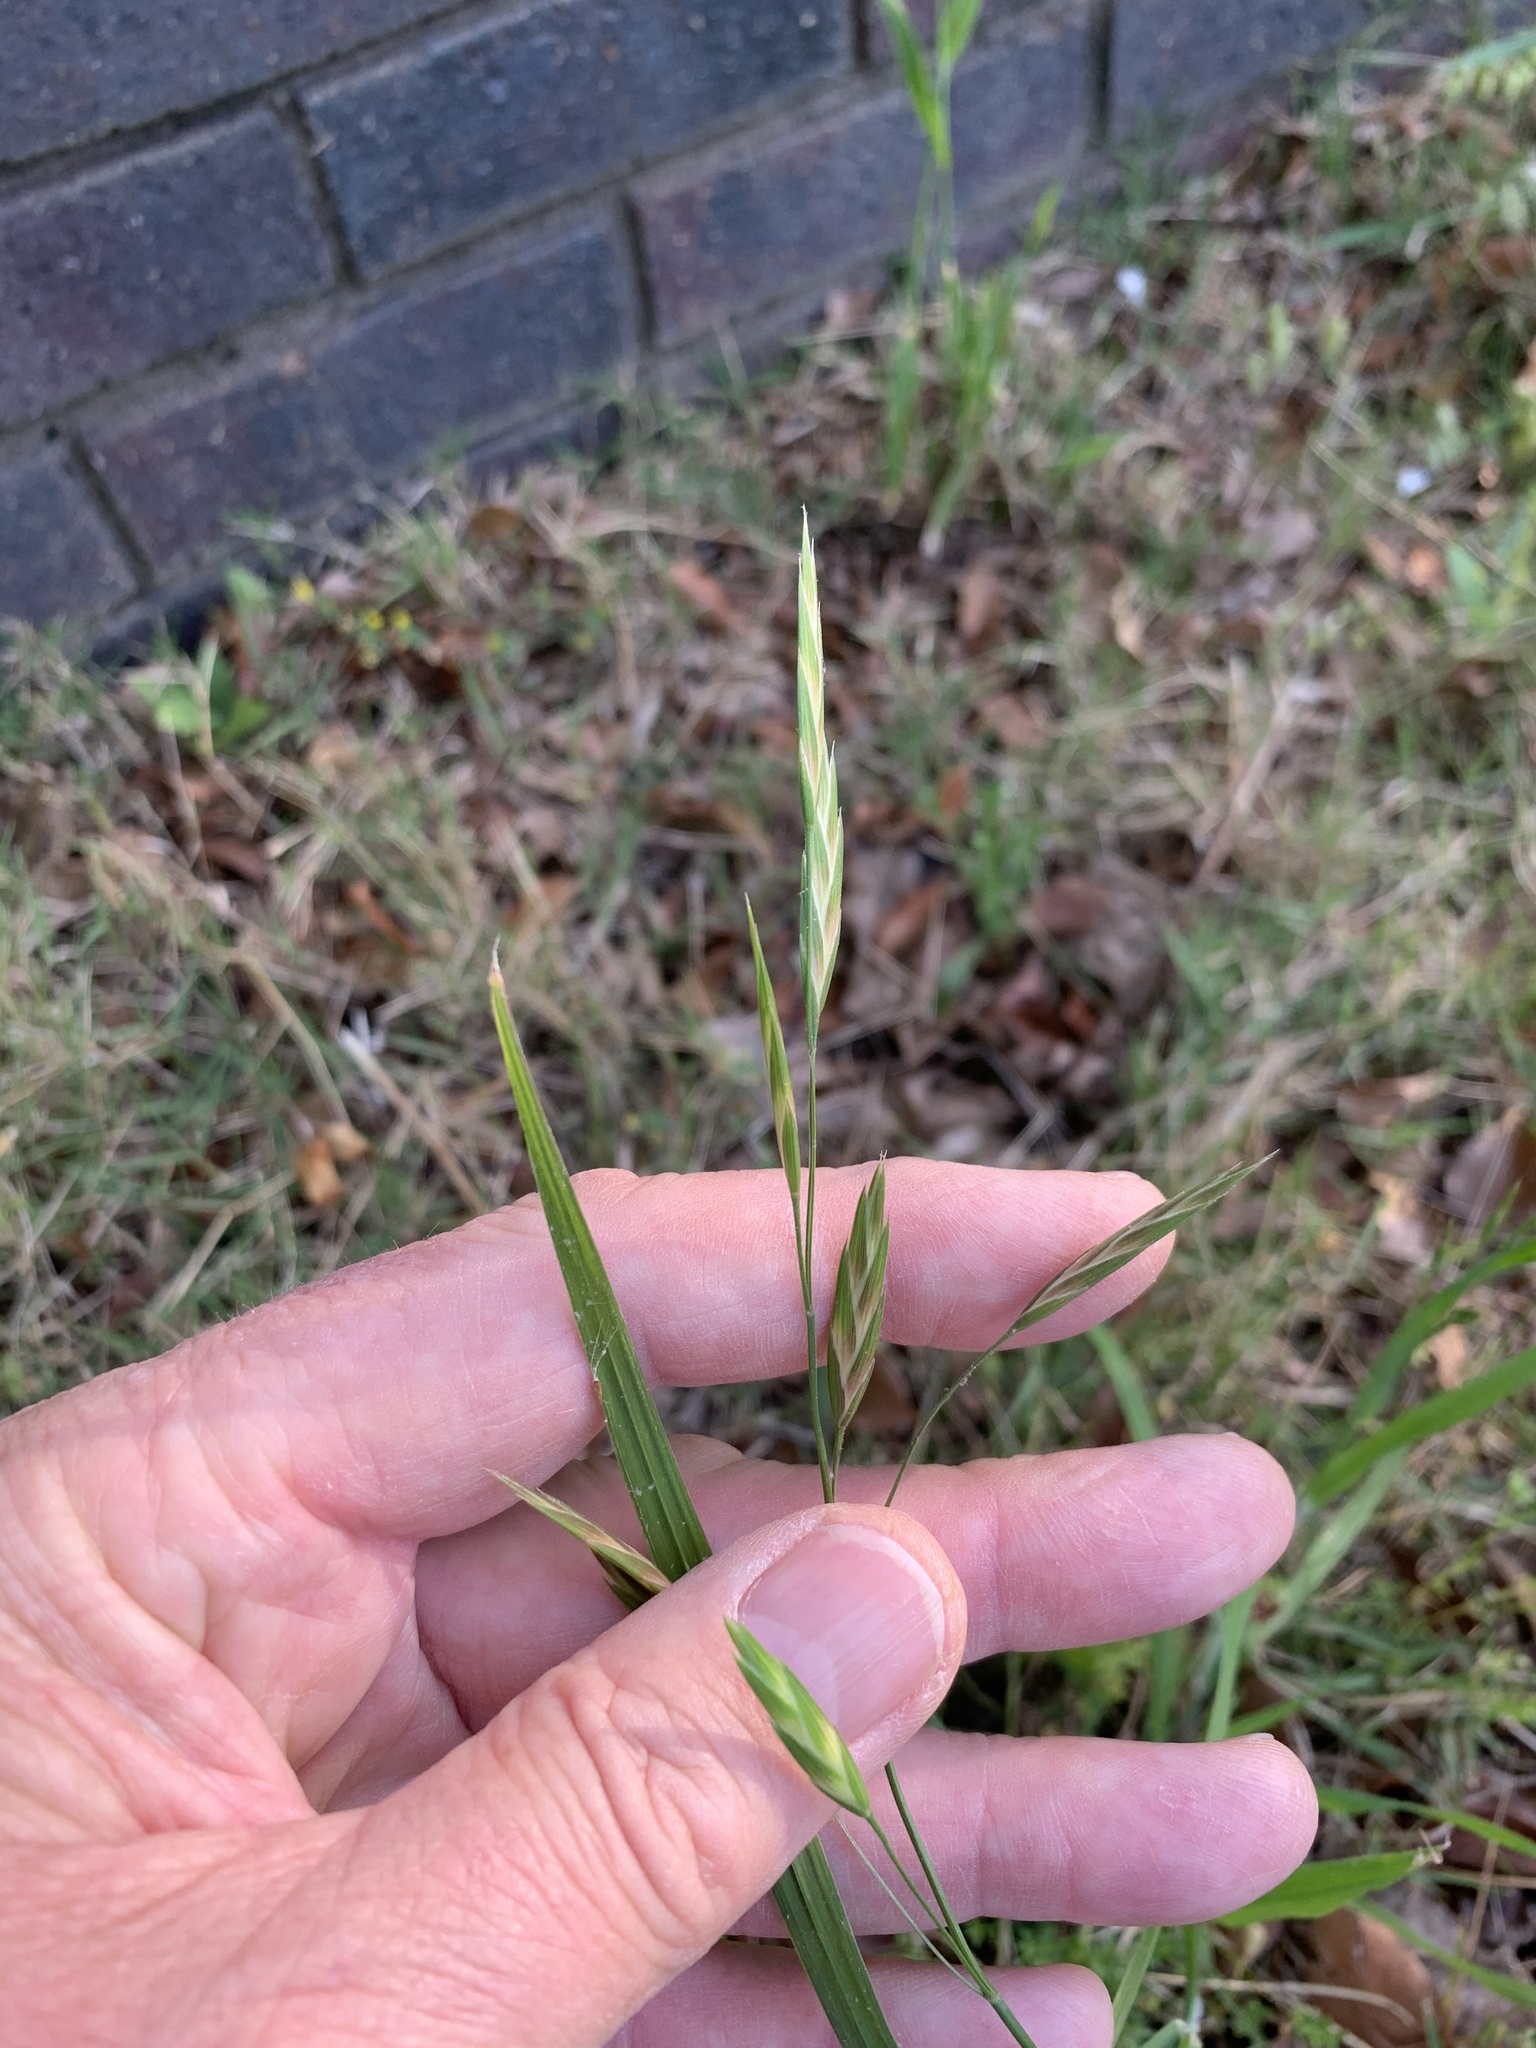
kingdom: Plantae
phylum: Tracheophyta
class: Liliopsida
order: Poales
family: Poaceae
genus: Bromus
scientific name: Bromus catharticus
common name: Rescuegrass
